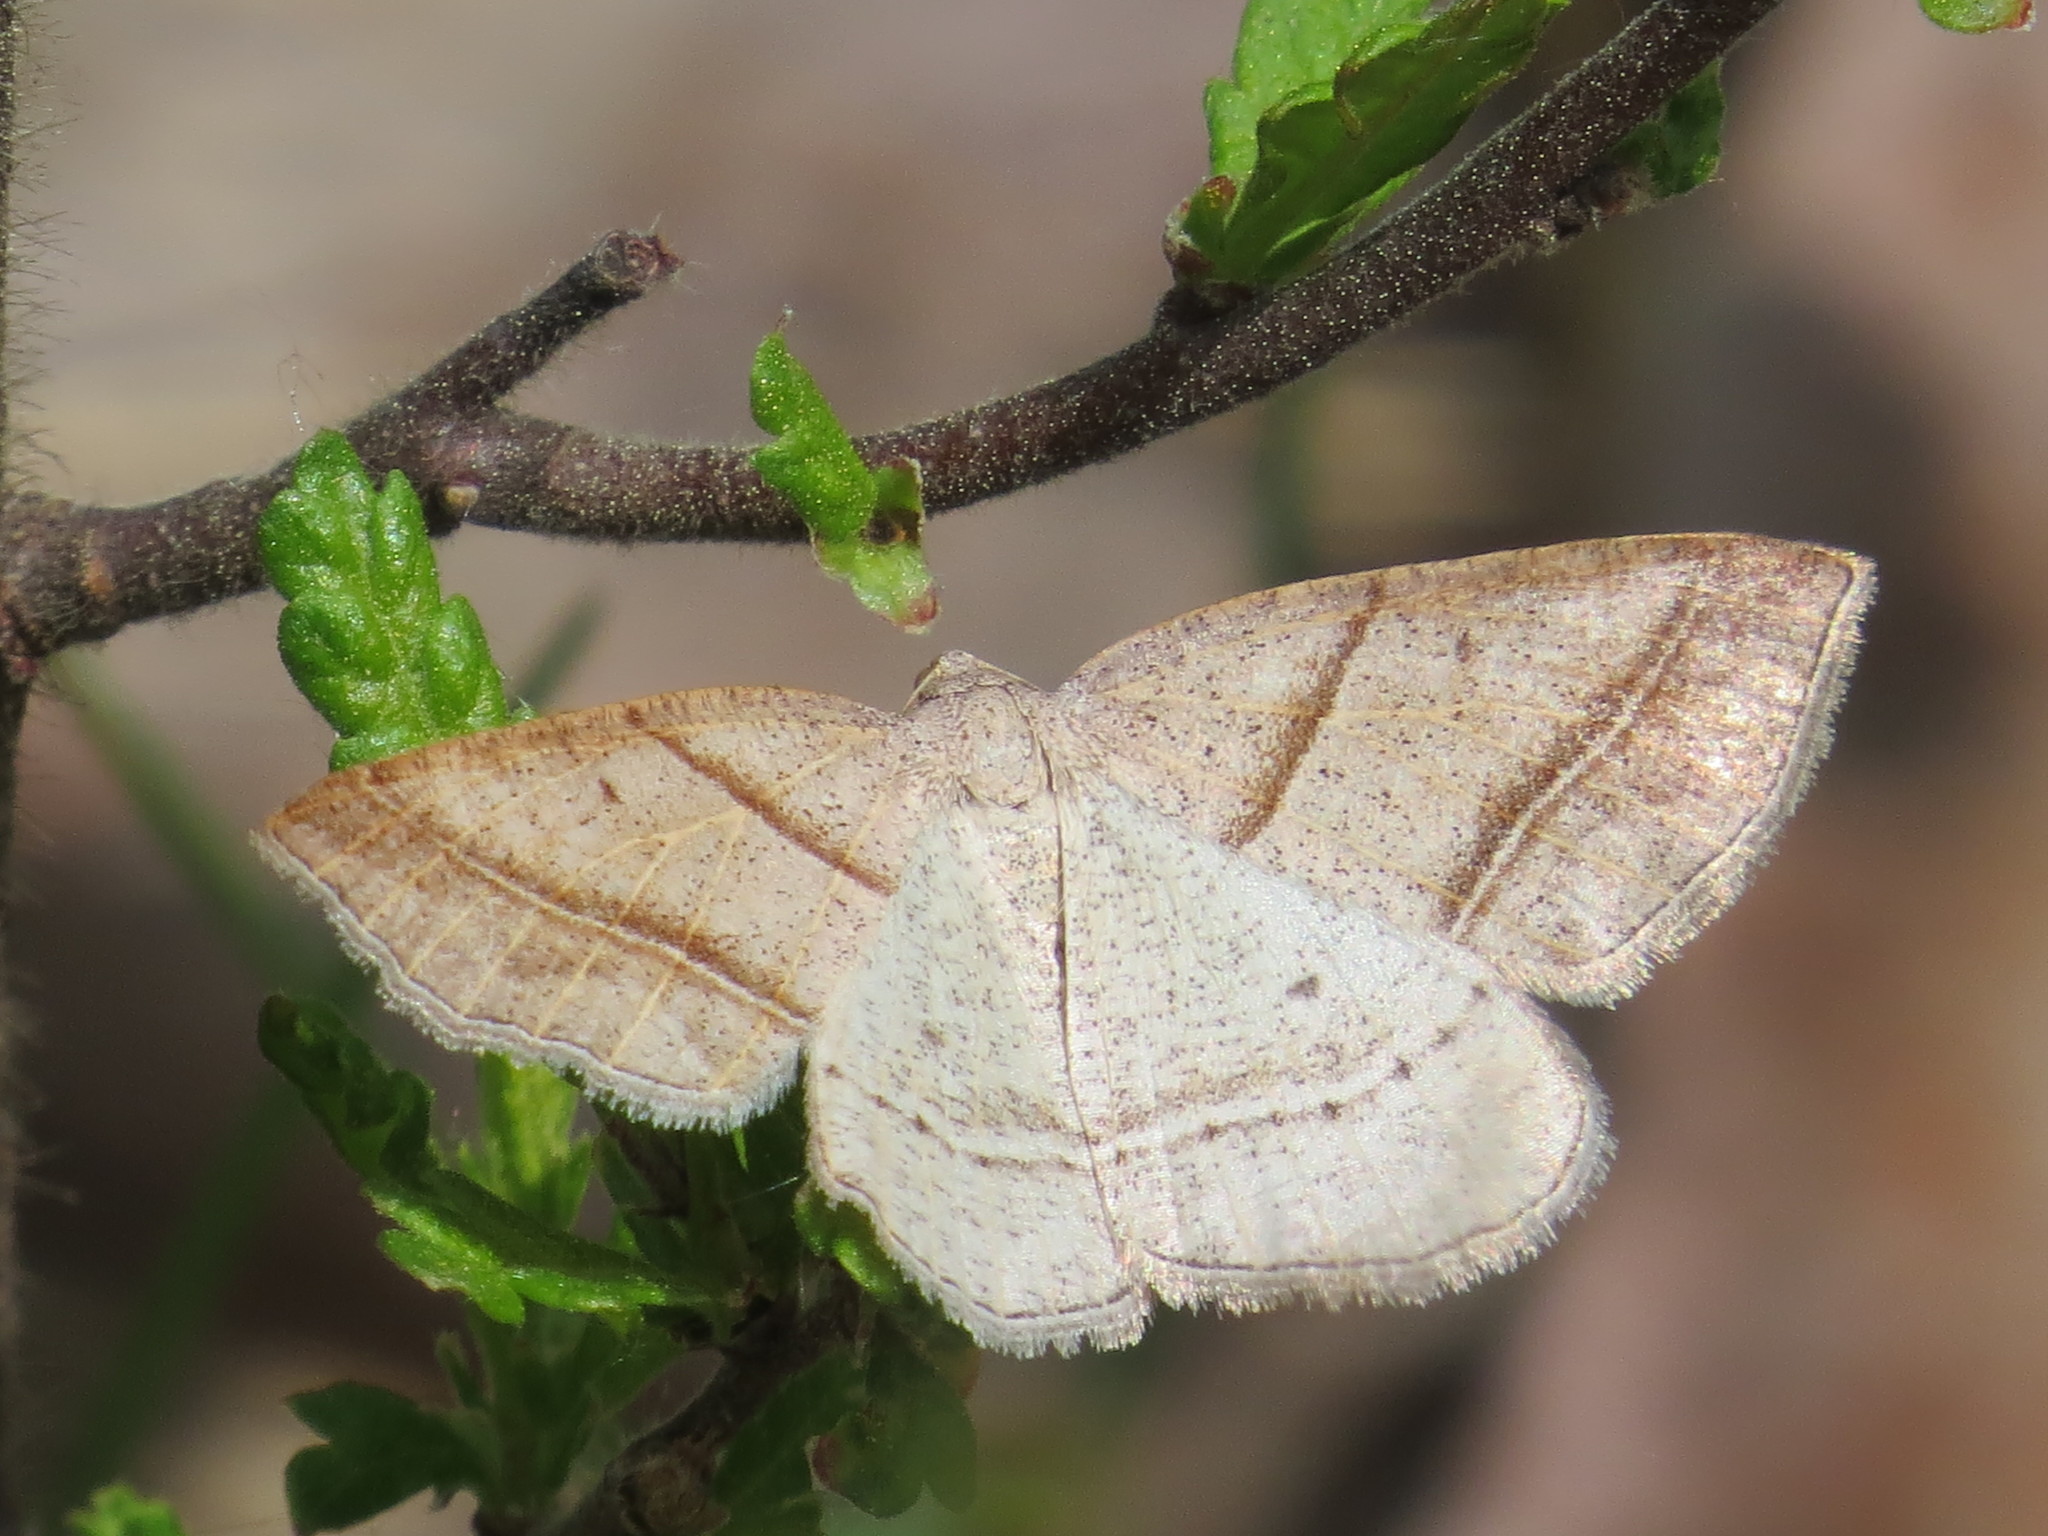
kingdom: Animalia
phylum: Arthropoda
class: Insecta
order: Lepidoptera
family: Pterophoridae
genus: Pterophorus
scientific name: Pterophorus Petrophora subaequaria
